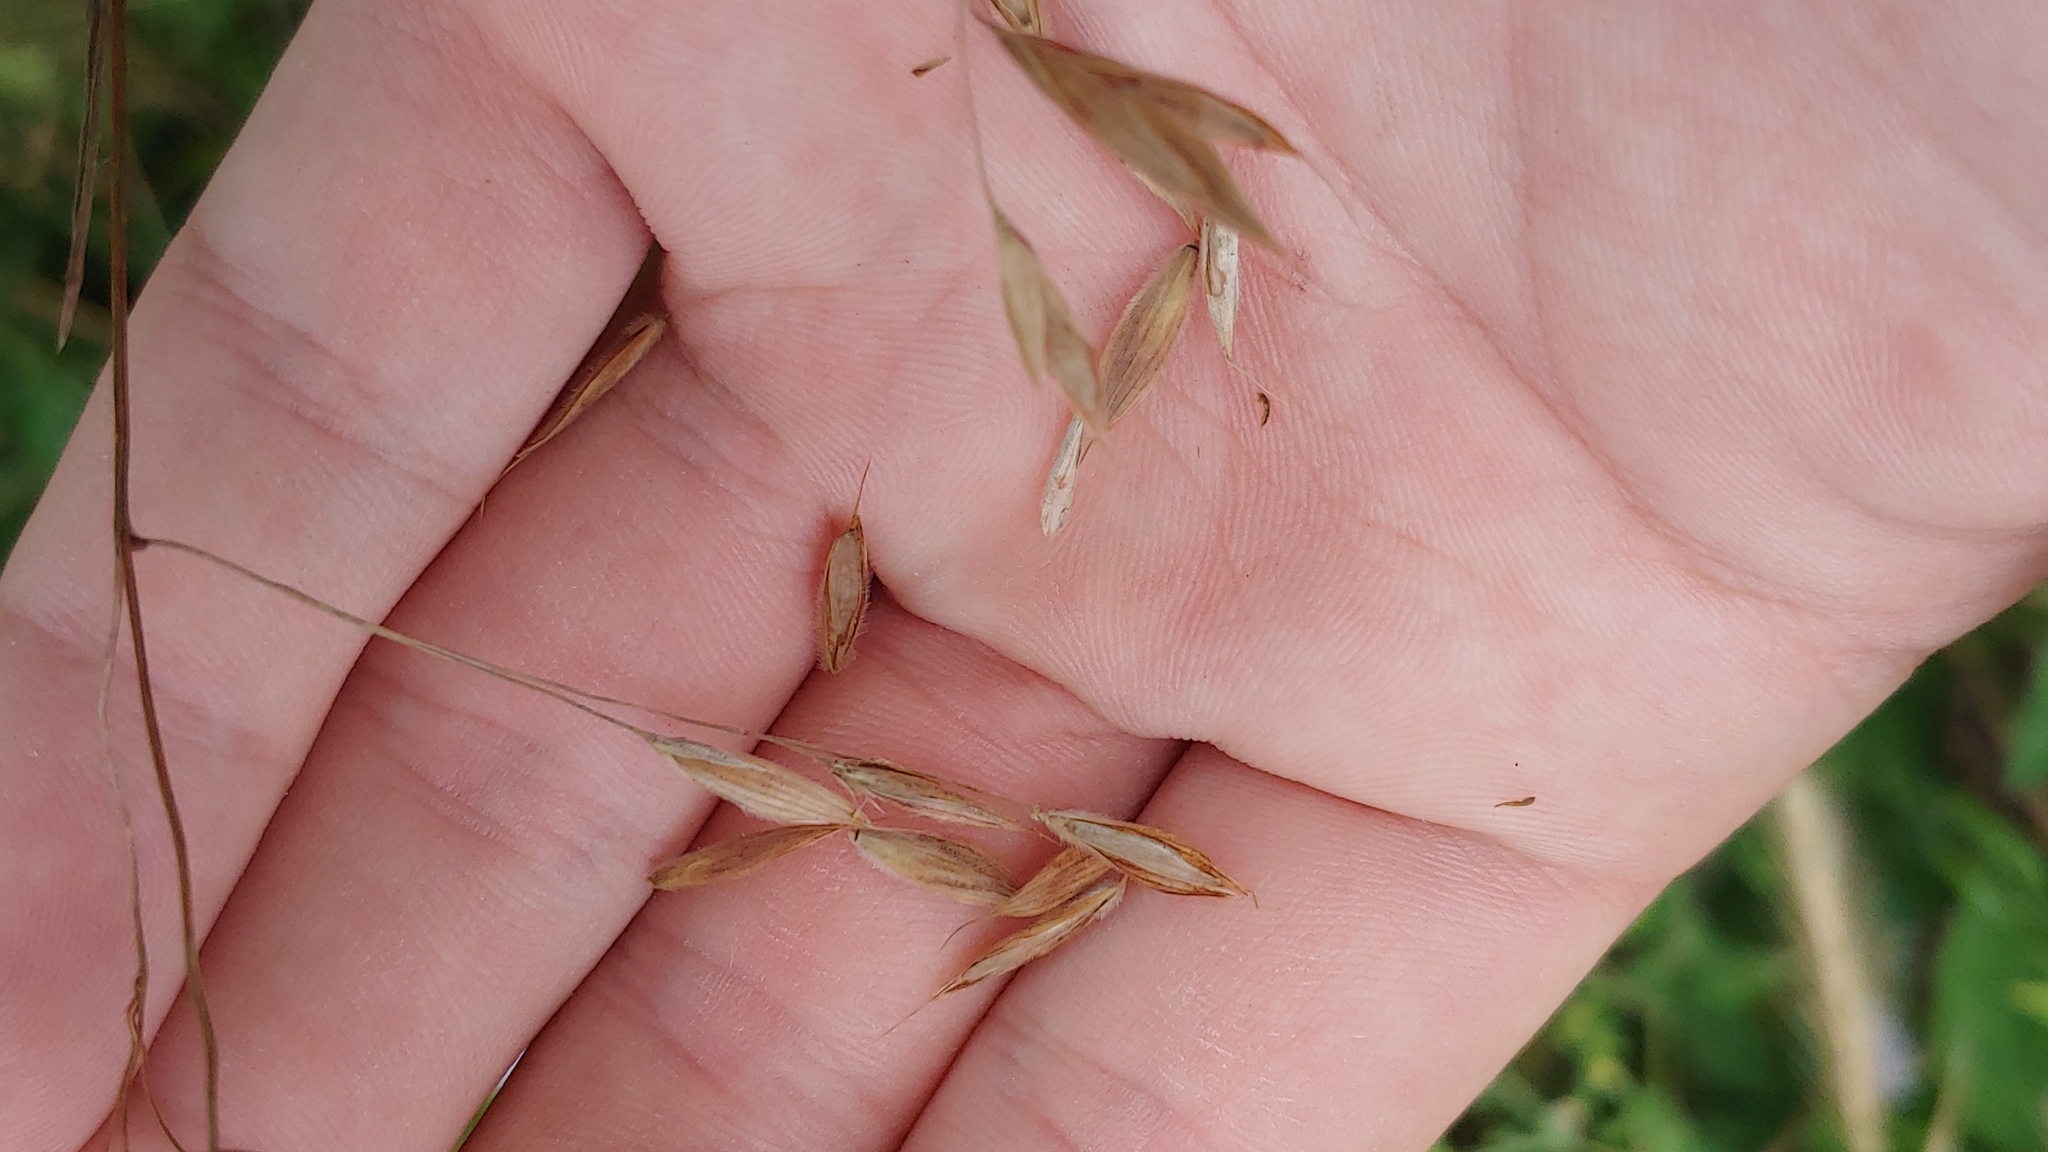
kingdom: Plantae
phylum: Tracheophyta
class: Liliopsida
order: Poales
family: Poaceae
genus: Bromus
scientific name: Bromus ciliatus
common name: Fringe brome
